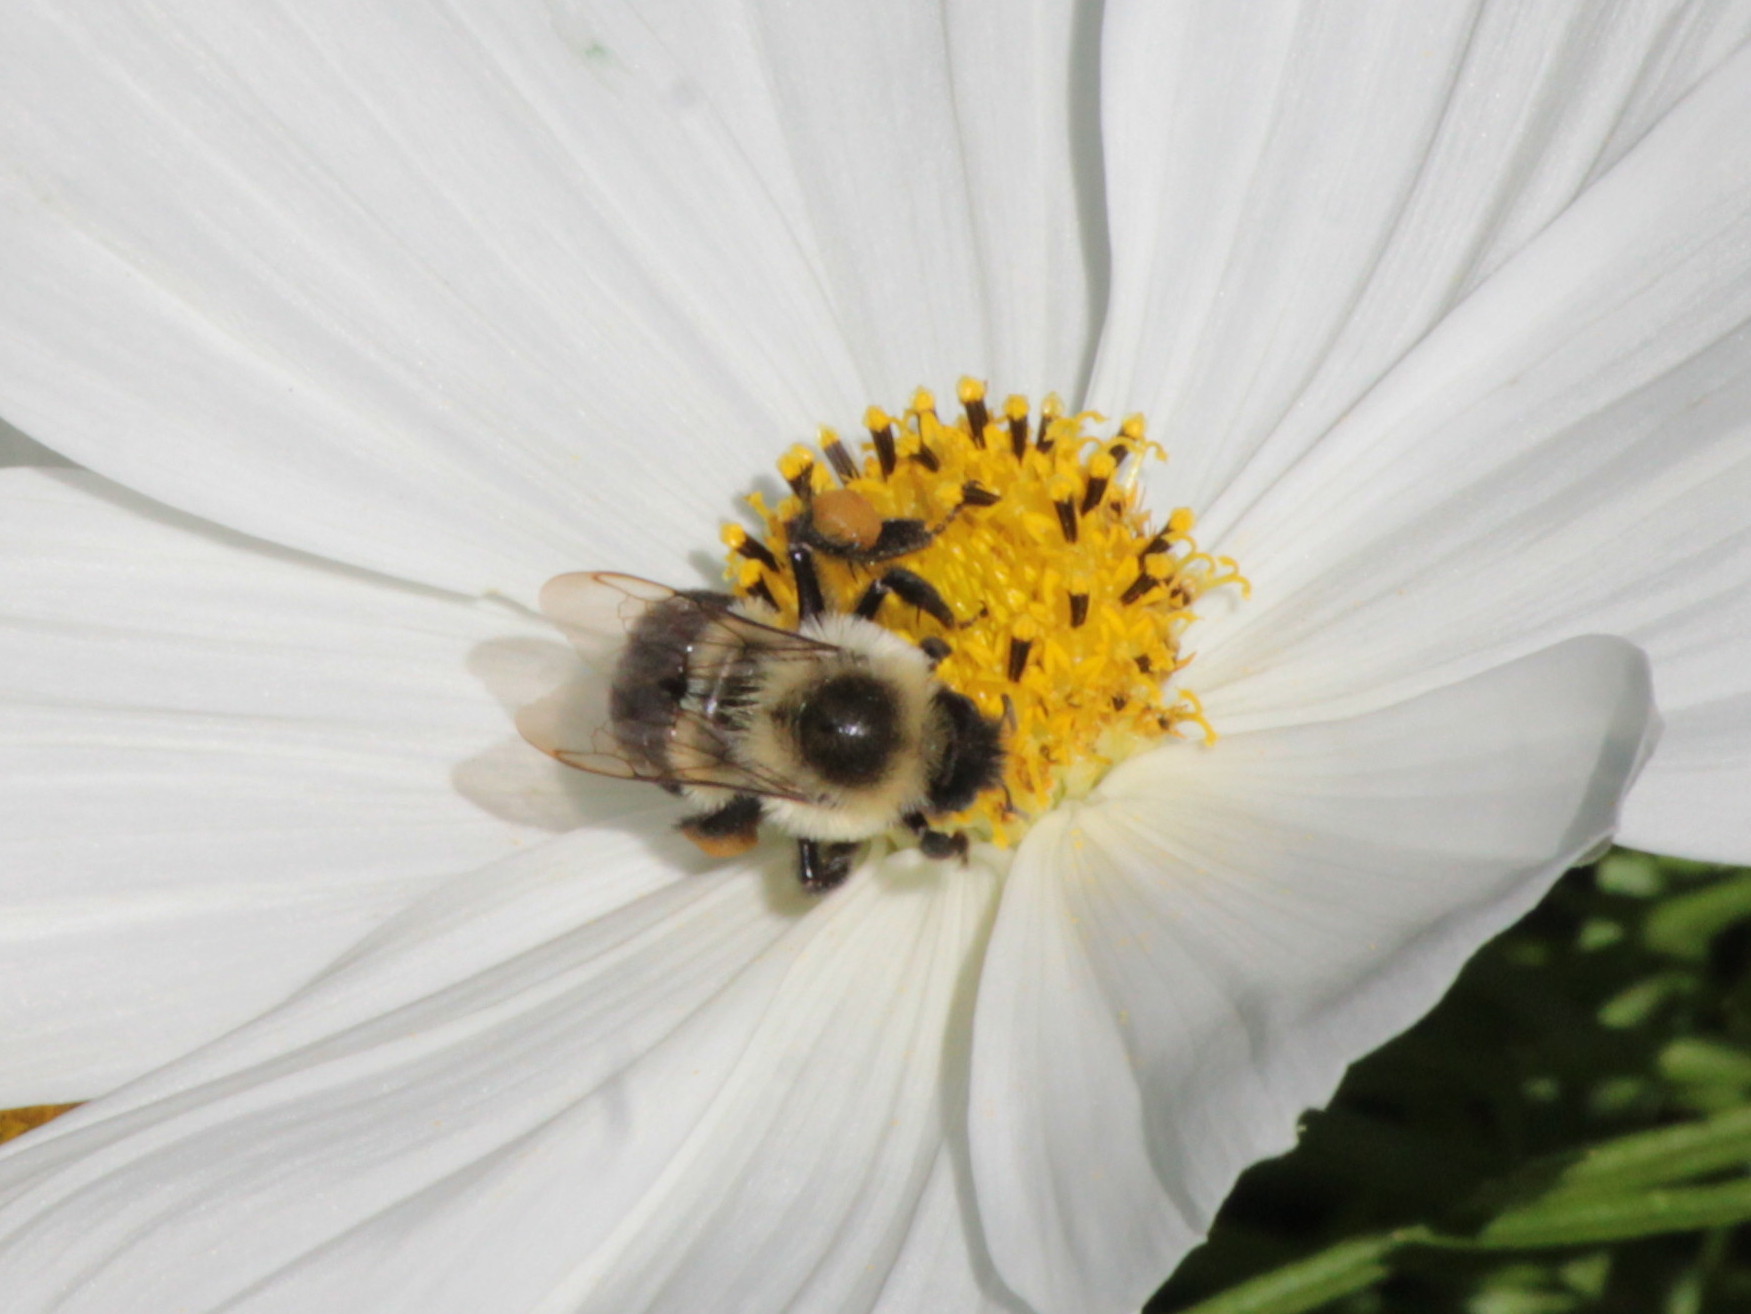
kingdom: Animalia
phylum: Arthropoda
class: Insecta
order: Hymenoptera
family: Apidae
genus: Bombus
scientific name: Bombus impatiens
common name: Common eastern bumble bee
